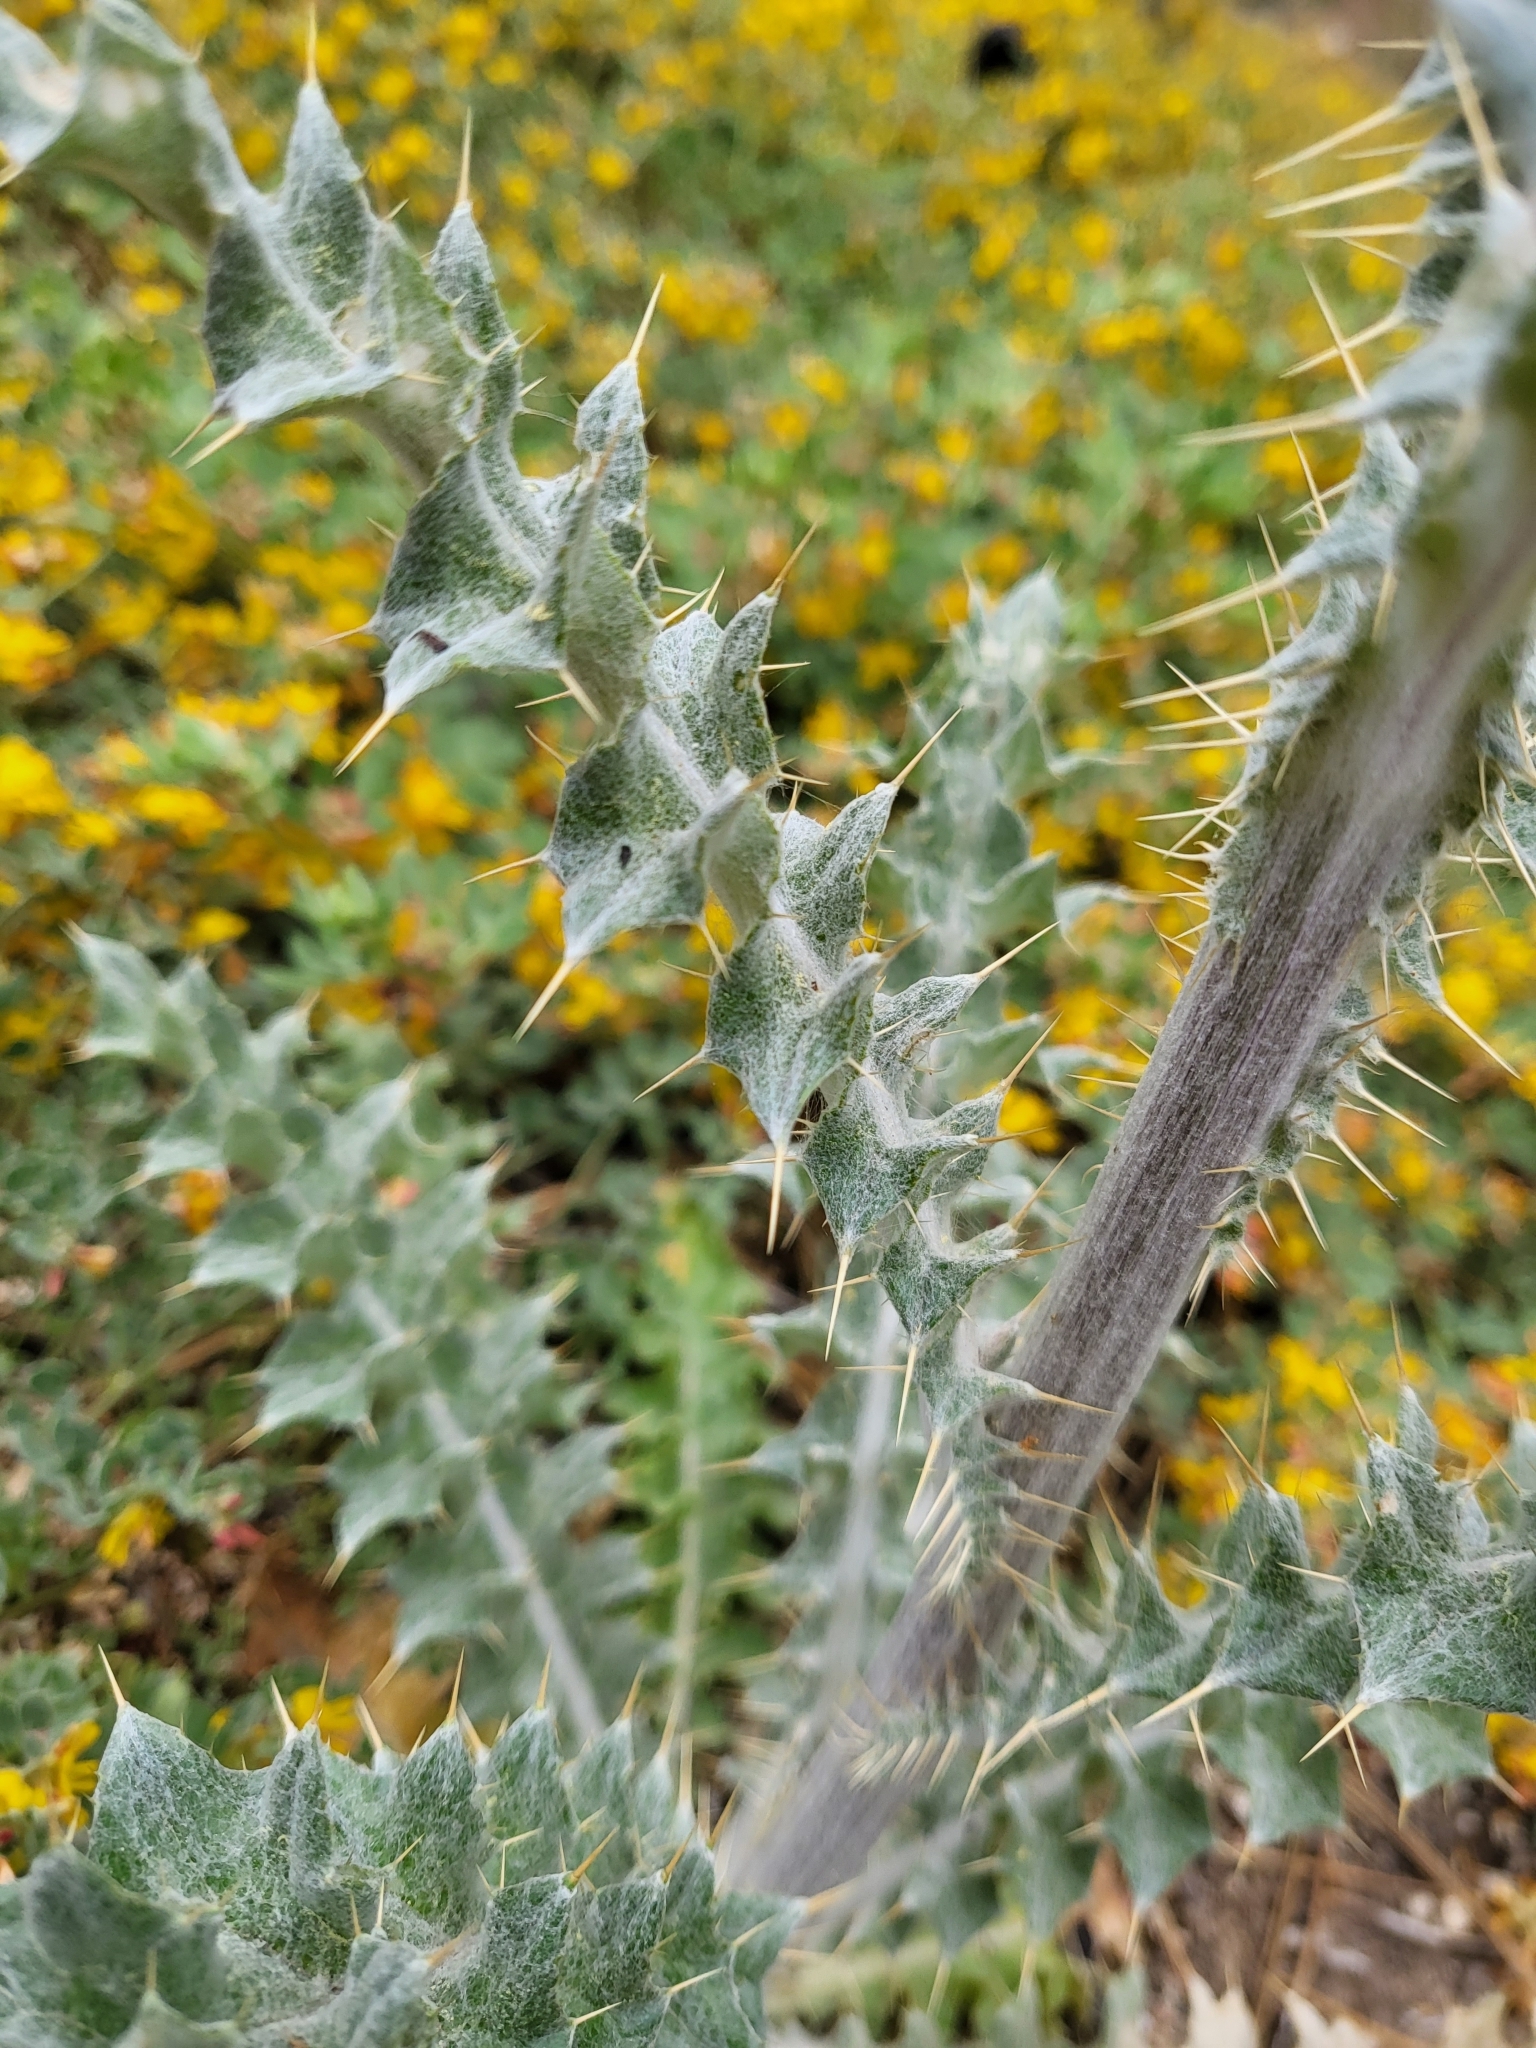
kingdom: Plantae
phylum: Tracheophyta
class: Magnoliopsida
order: Asterales
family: Asteraceae
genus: Cirsium
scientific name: Cirsium occidentale
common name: Western thistle
